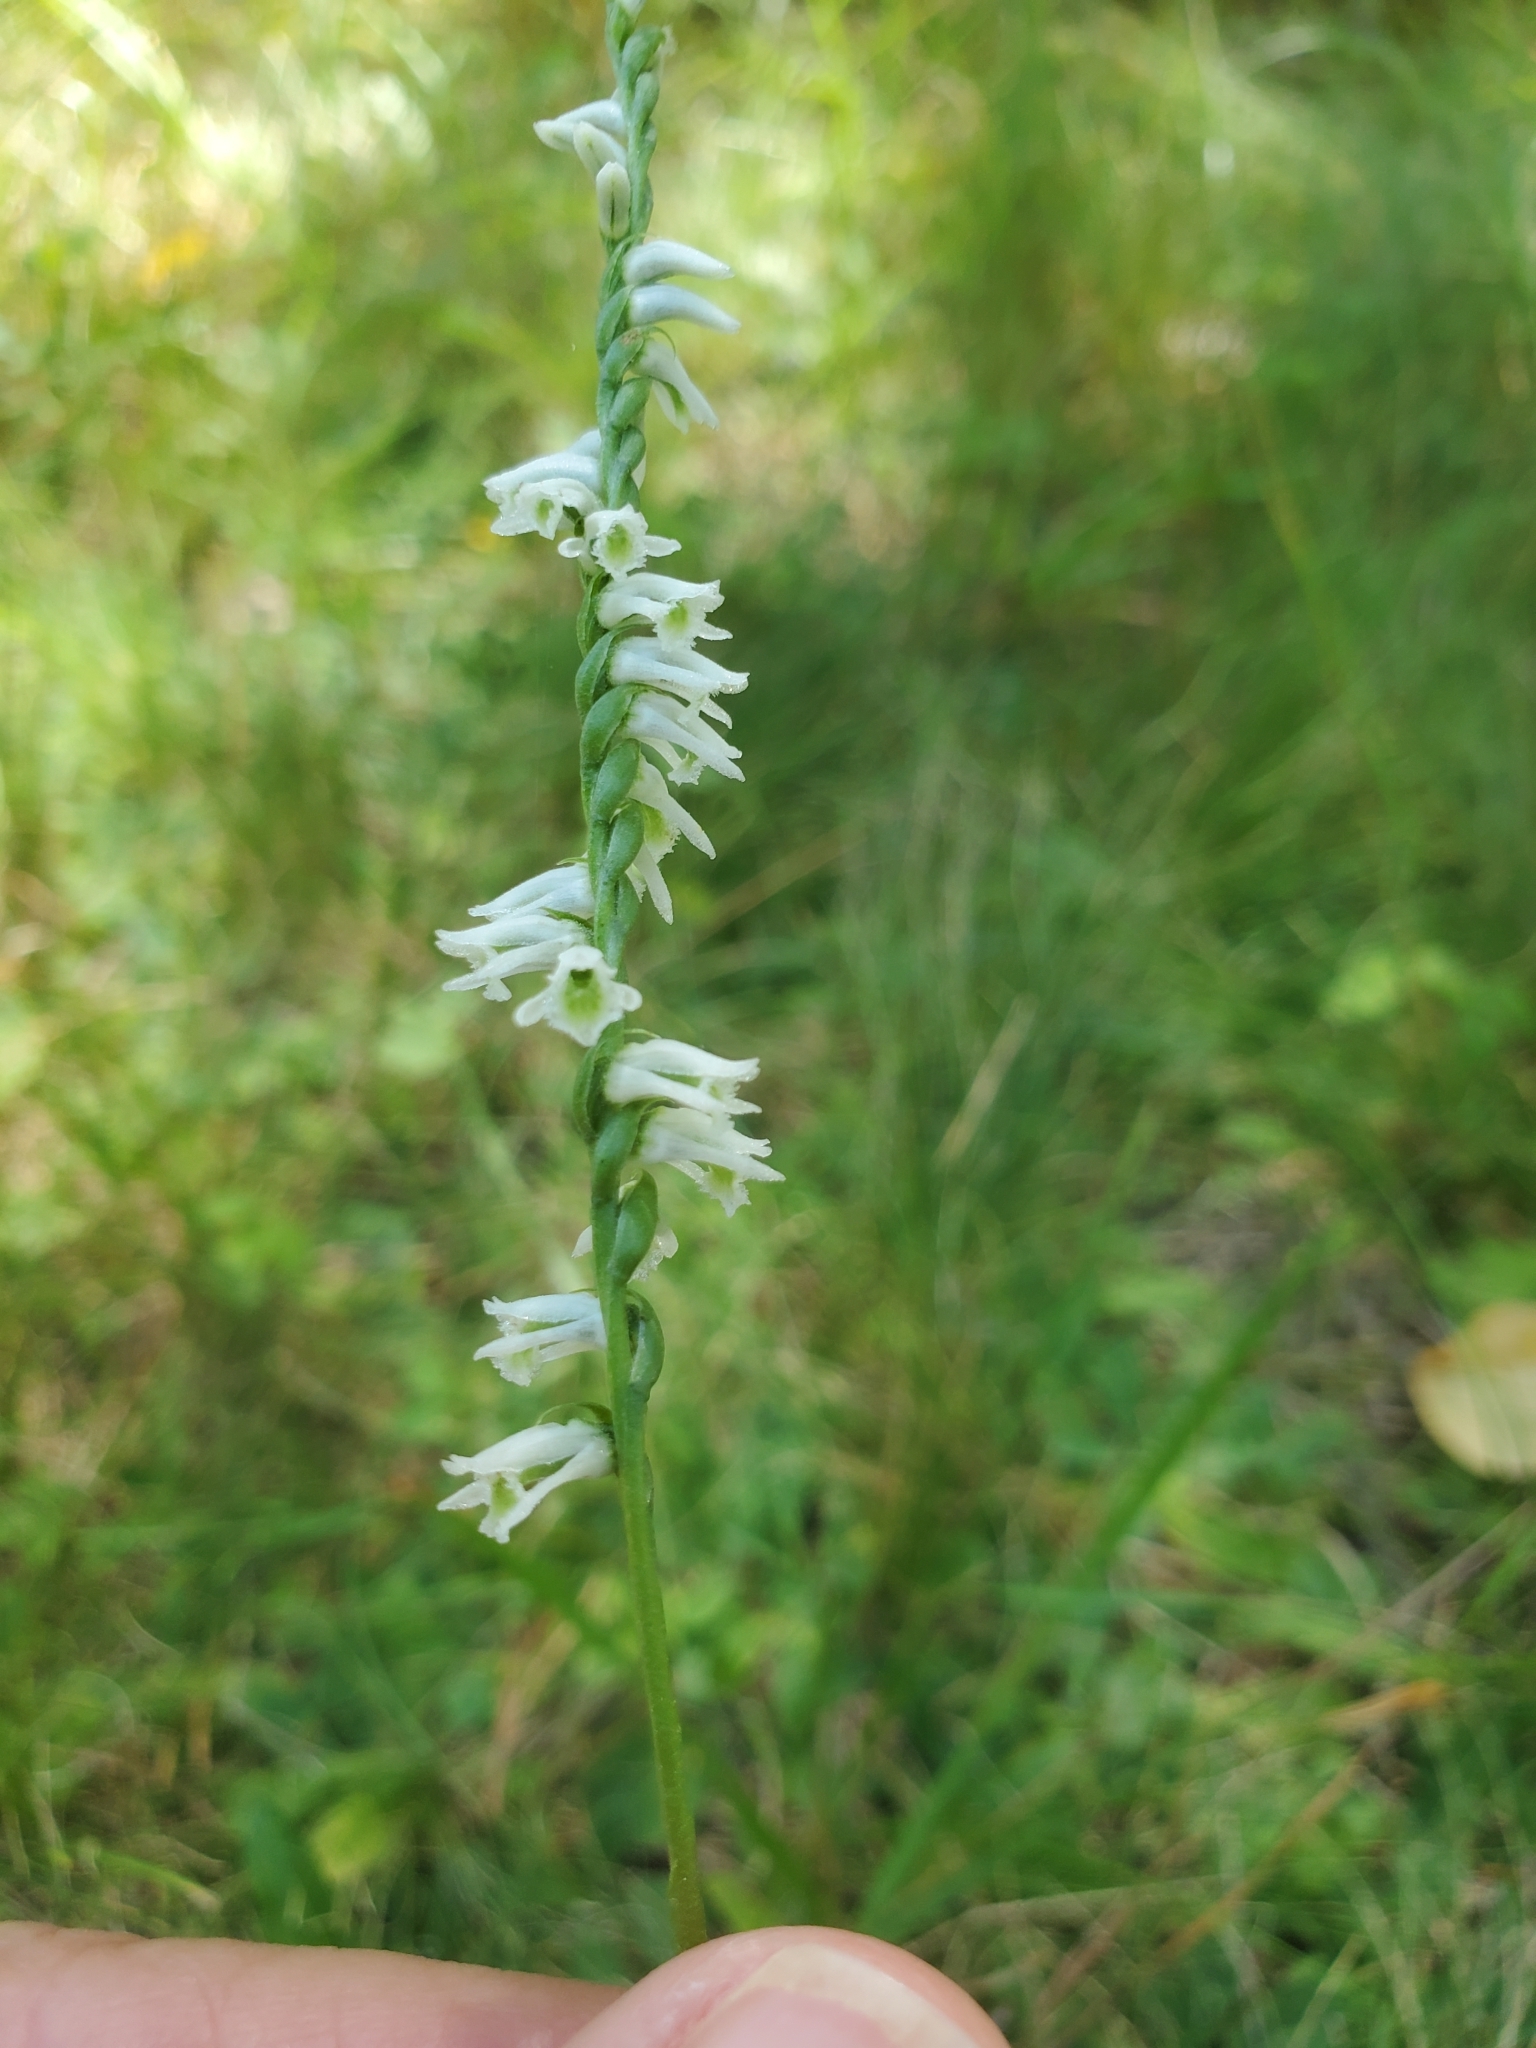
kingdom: Plantae
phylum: Tracheophyta
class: Liliopsida
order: Asparagales
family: Orchidaceae
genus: Spiranthes
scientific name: Spiranthes lacera
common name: Northern slender ladies'-tresses
